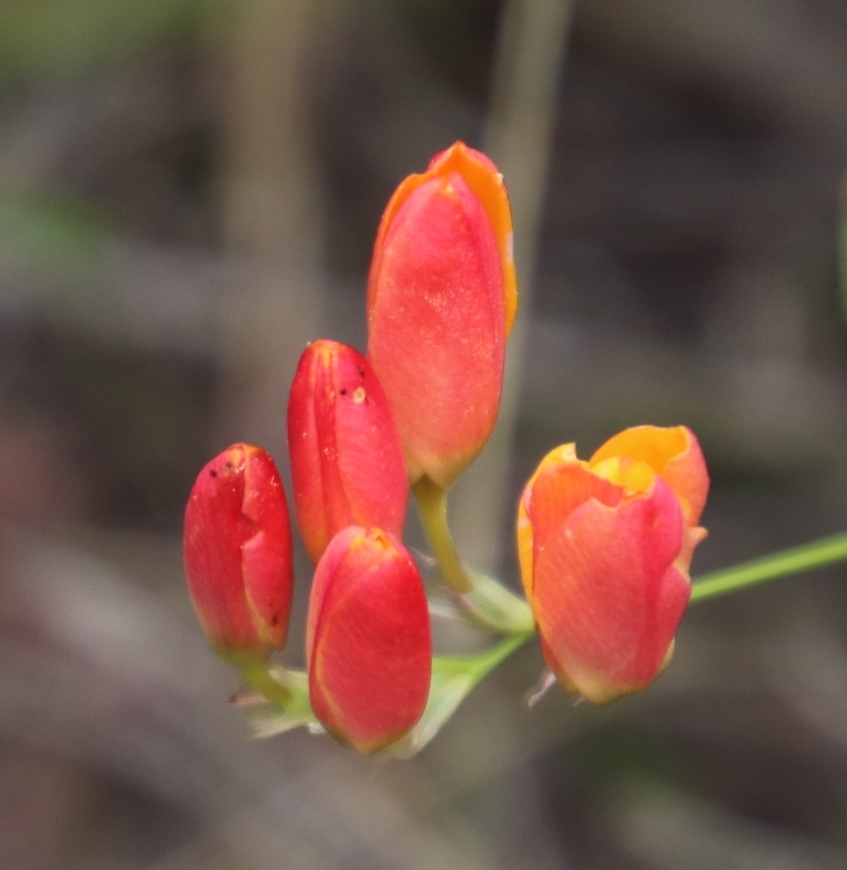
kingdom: Plantae
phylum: Tracheophyta
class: Liliopsida
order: Asparagales
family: Iridaceae
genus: Ixia
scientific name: Ixia dubia
